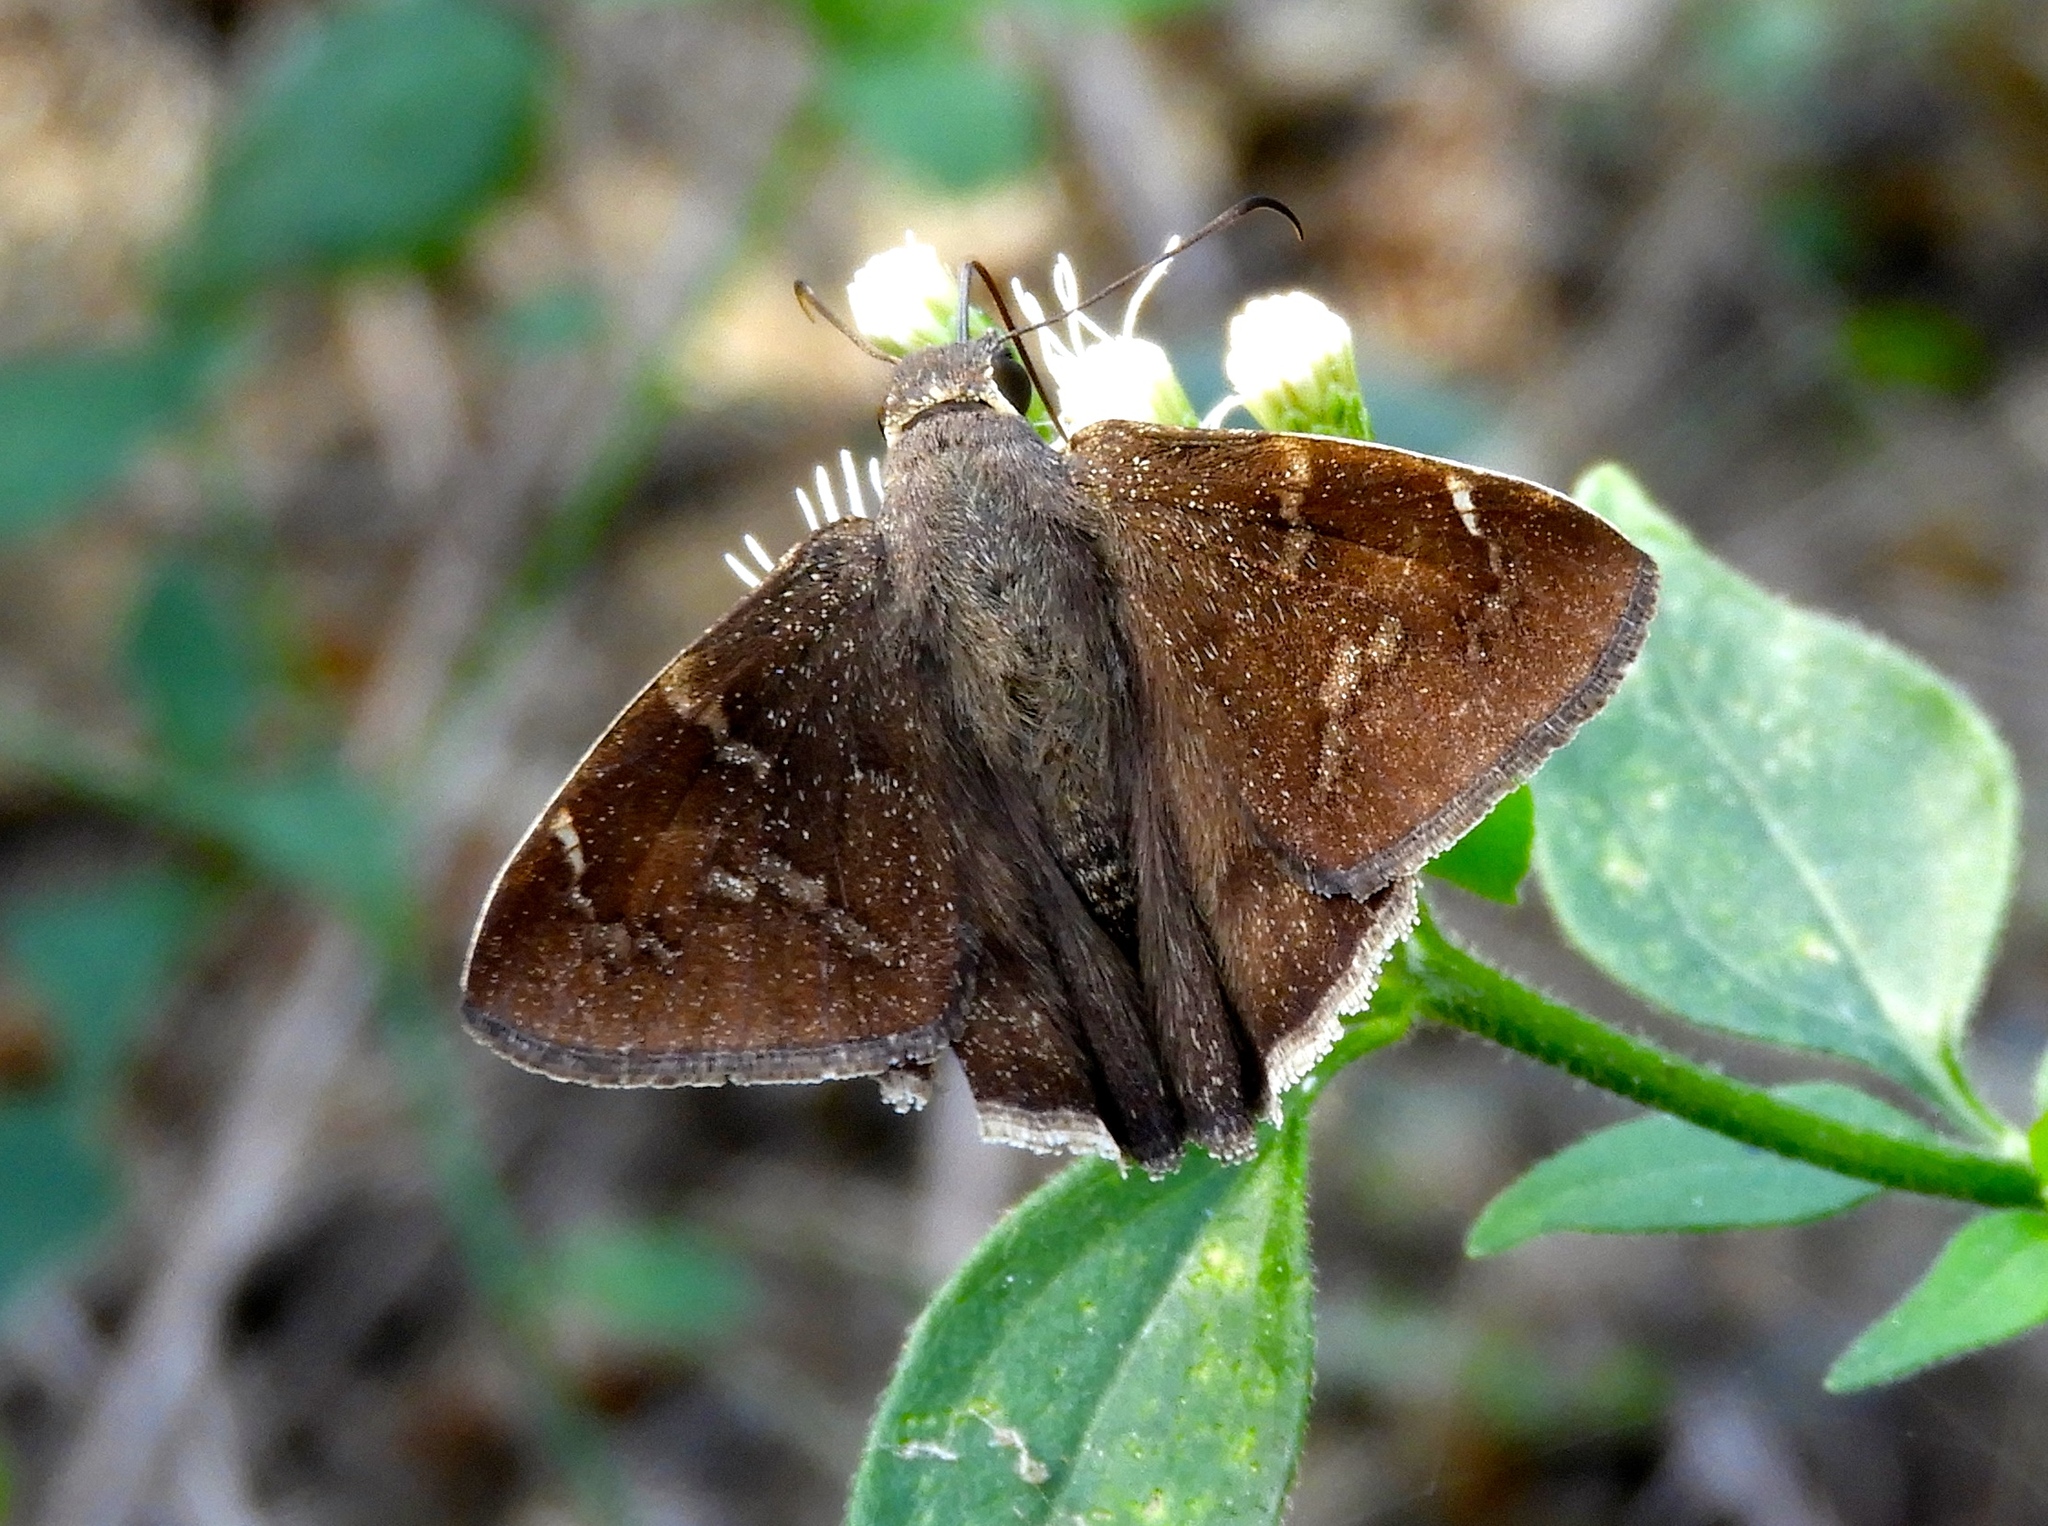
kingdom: Animalia
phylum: Arthropoda
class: Insecta
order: Lepidoptera
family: Hesperiidae
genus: Achalarus
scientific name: Achalarus Murgaria jalapus
